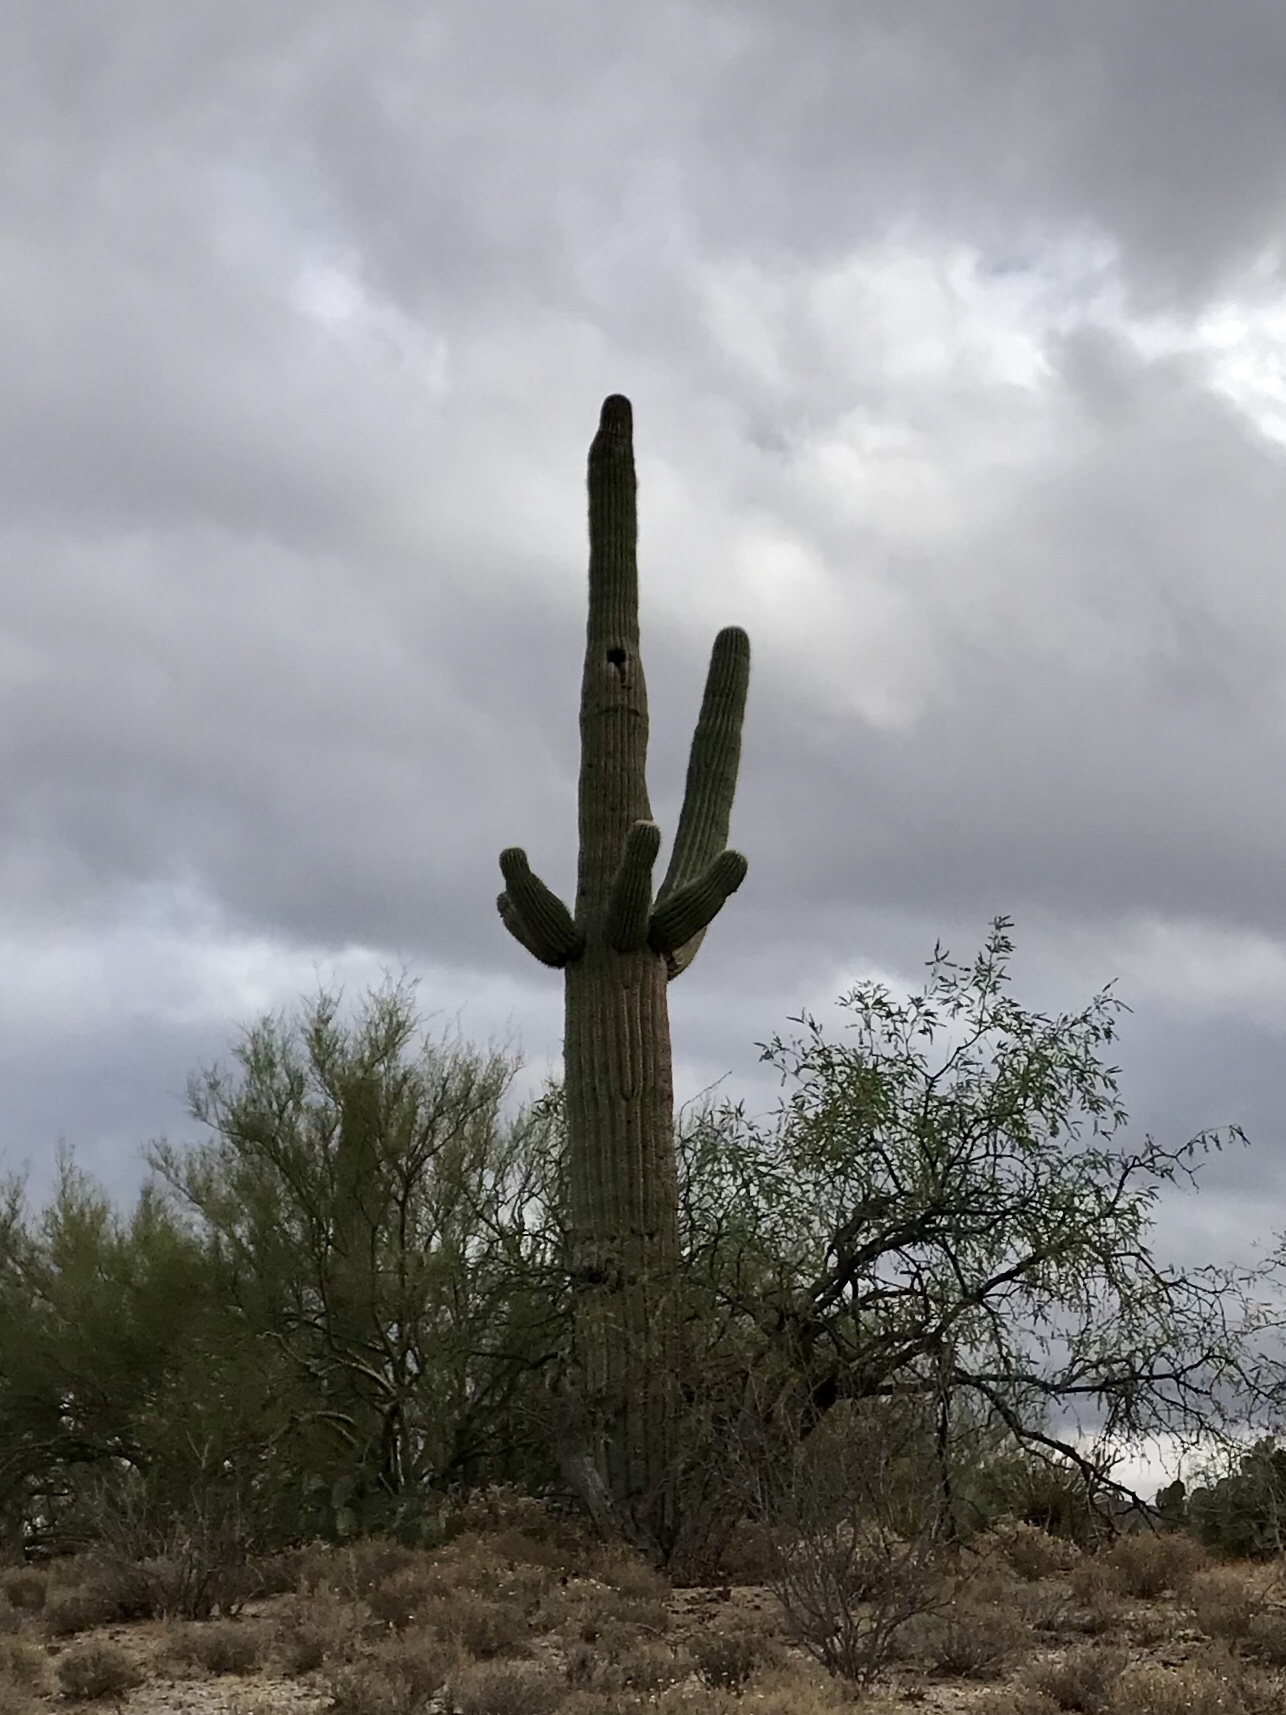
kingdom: Plantae
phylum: Tracheophyta
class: Magnoliopsida
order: Caryophyllales
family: Cactaceae
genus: Carnegiea
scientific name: Carnegiea gigantea
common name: Saguaro
